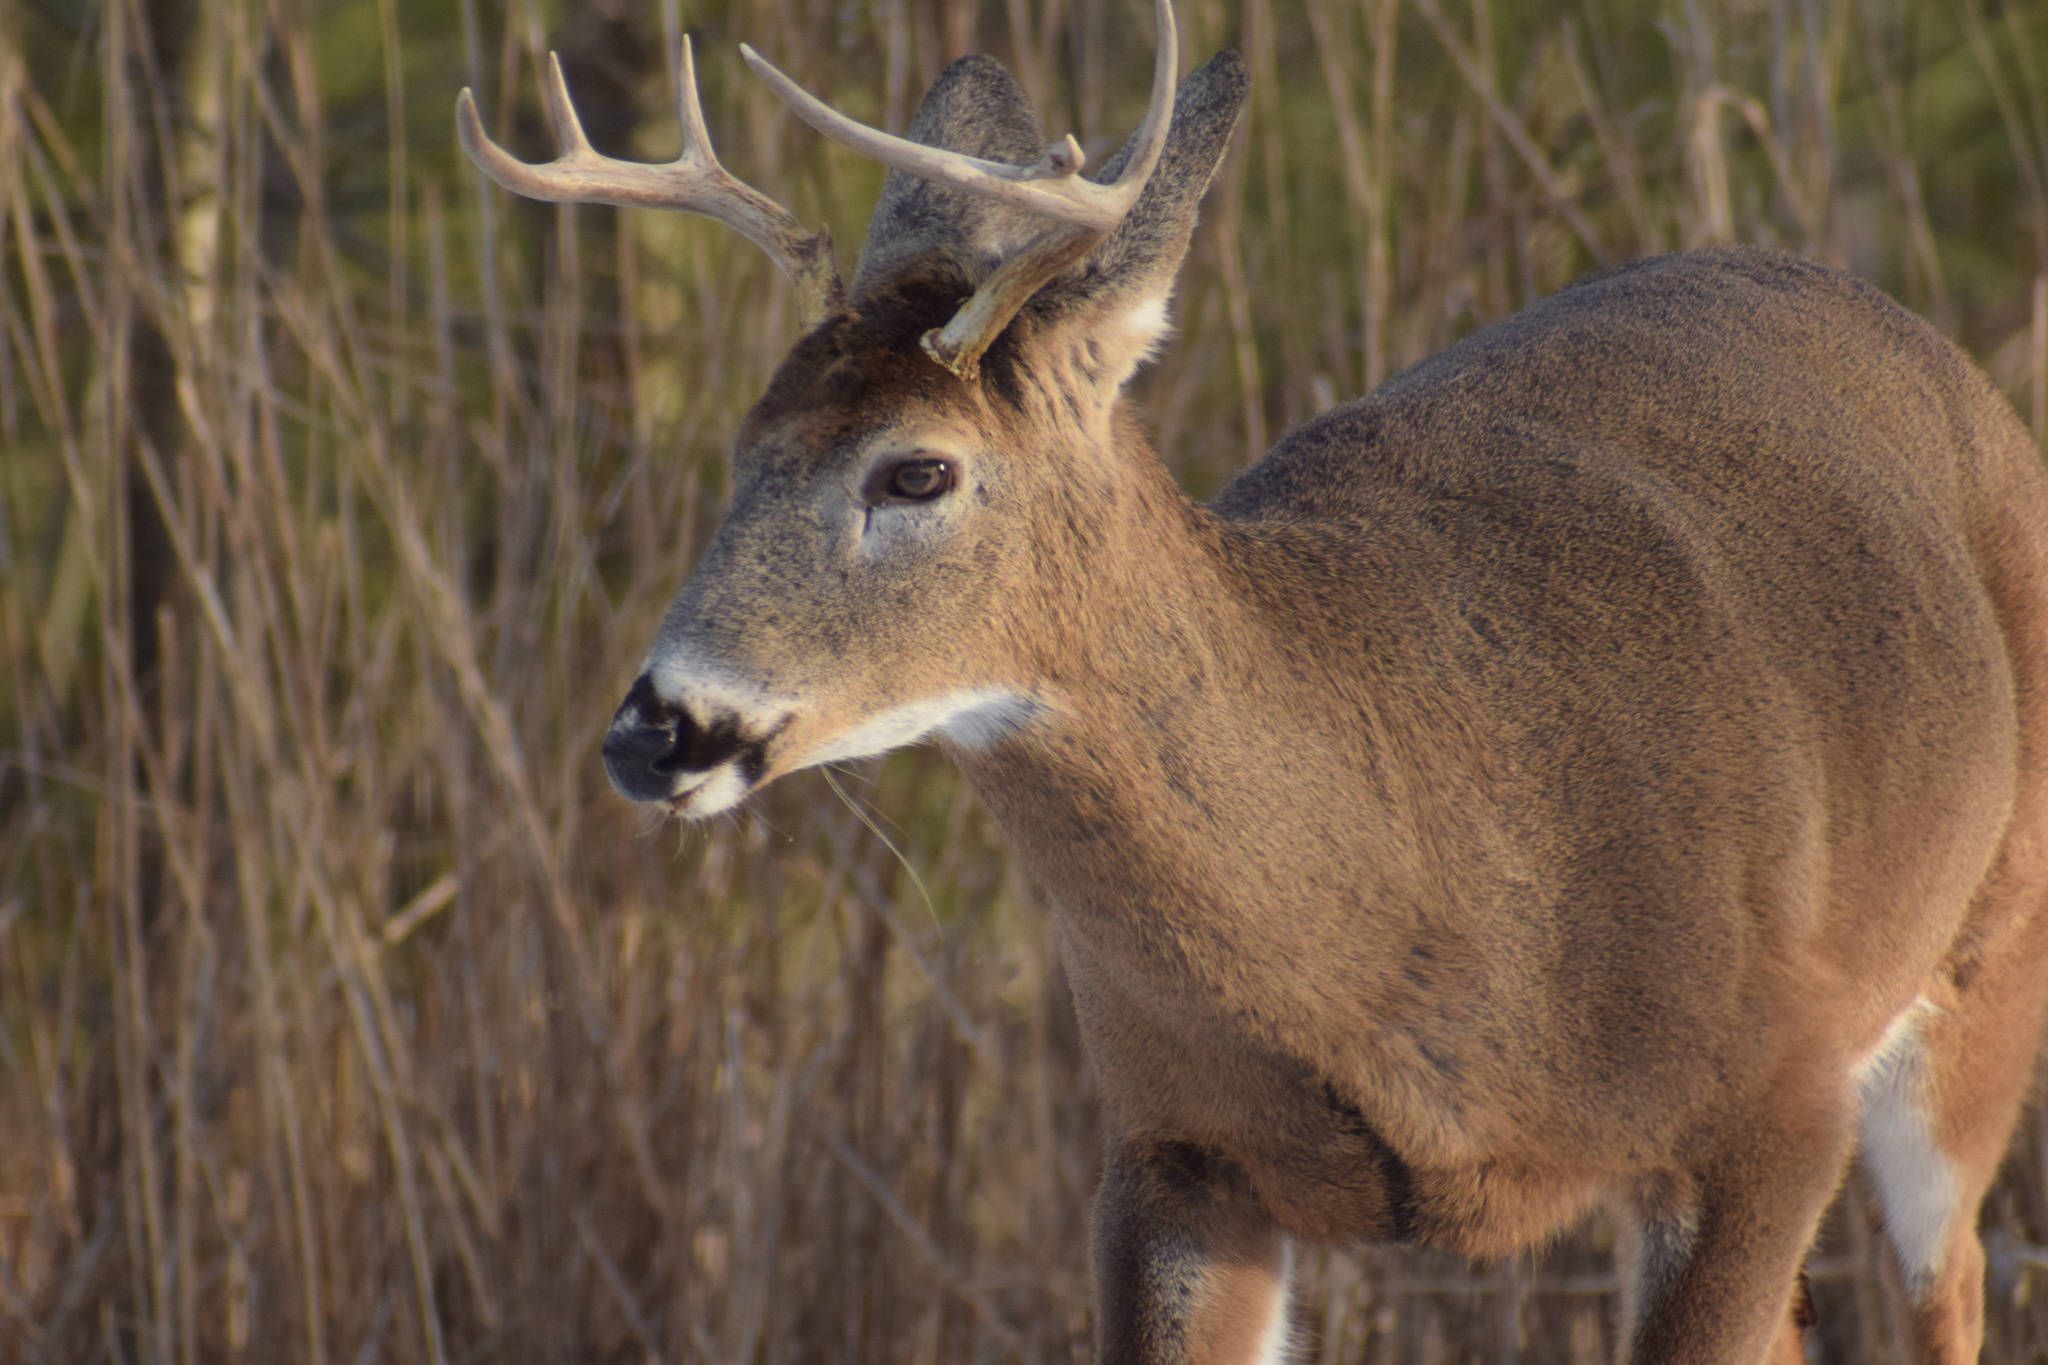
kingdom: Animalia
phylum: Chordata
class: Mammalia
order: Artiodactyla
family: Cervidae
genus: Odocoileus
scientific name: Odocoileus virginianus
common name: White-tailed deer
